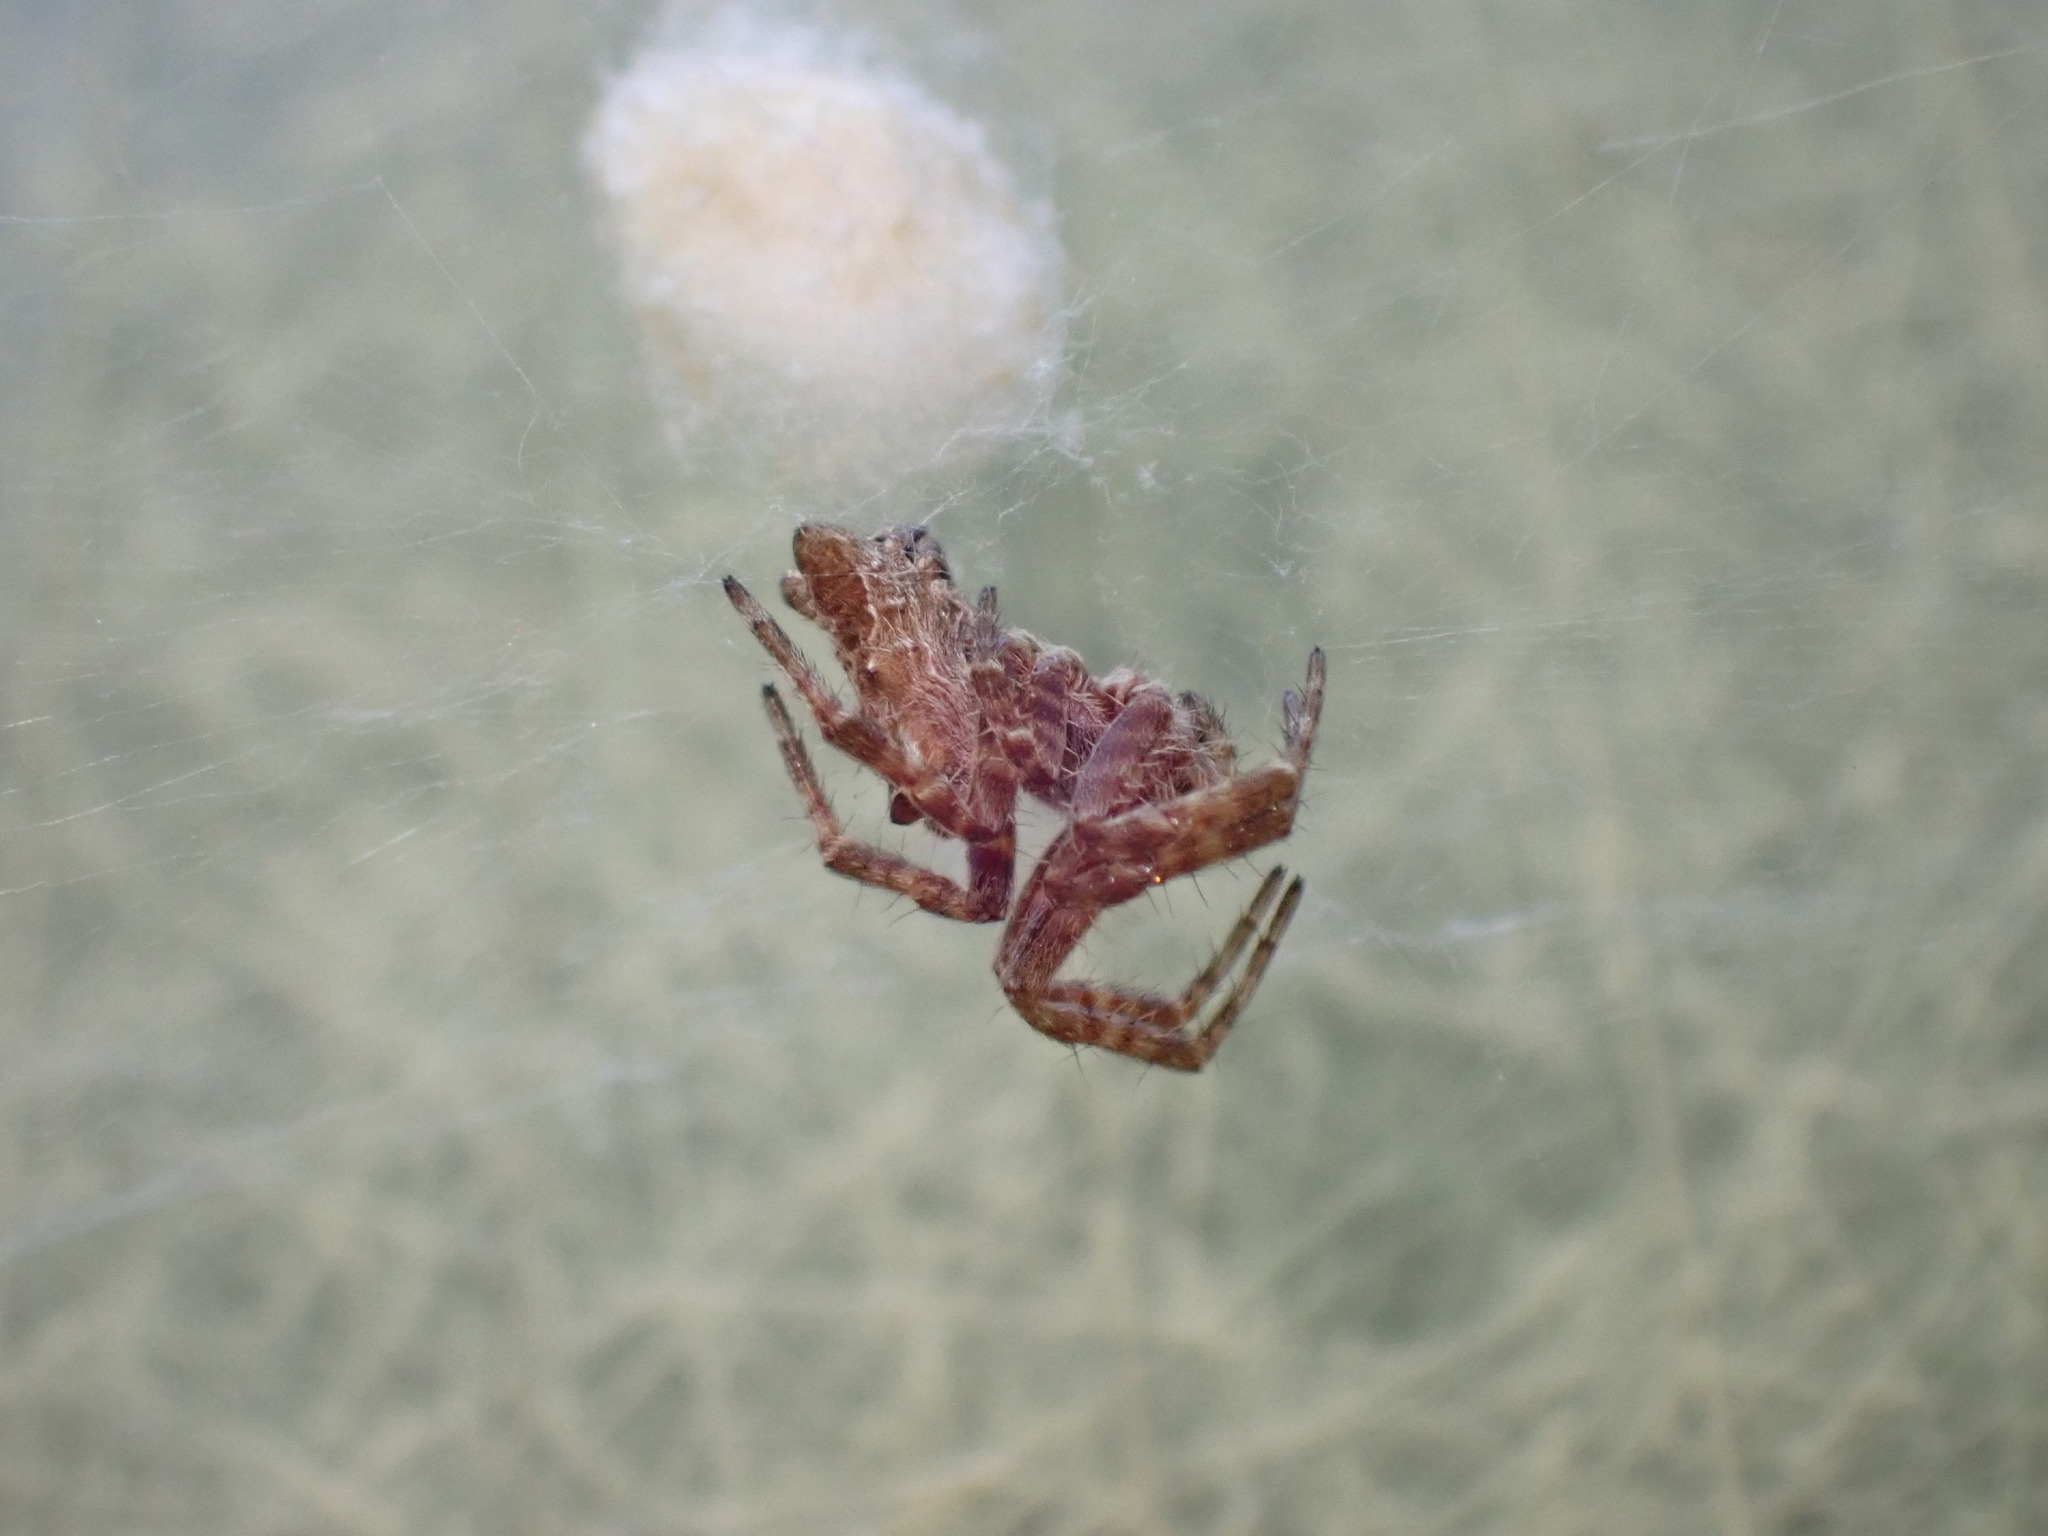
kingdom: Animalia
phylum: Arthropoda
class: Arachnida
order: Araneae
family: Araneidae
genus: Cyrtophora
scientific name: Cyrtophora citricola
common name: Orb weavers
